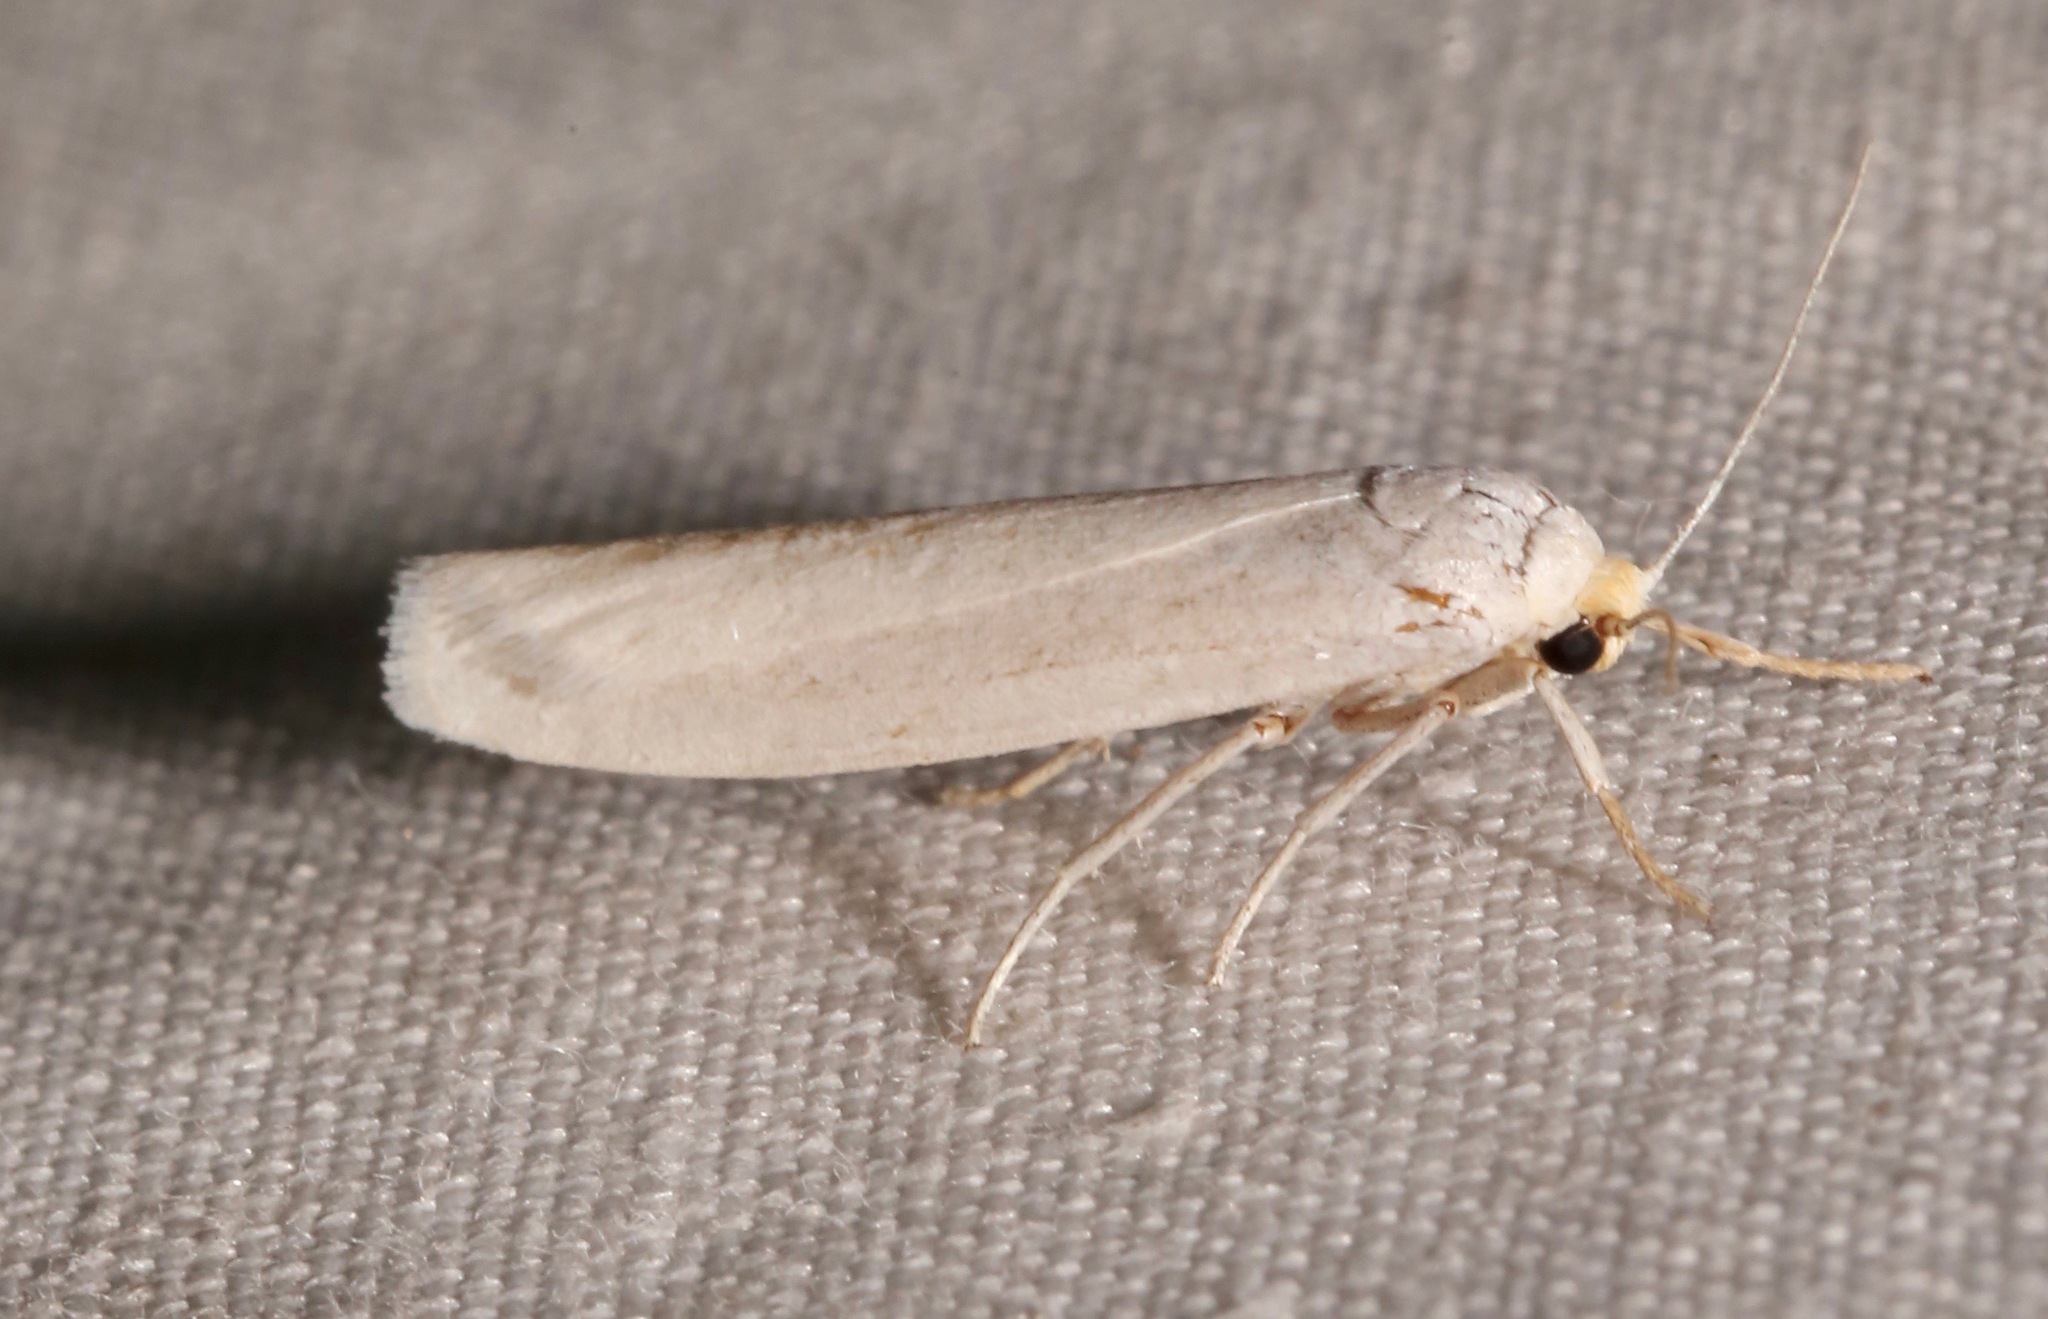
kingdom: Animalia
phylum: Arthropoda
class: Insecta
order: Lepidoptera
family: Erebidae
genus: Crambidia
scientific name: Crambidia cephalica
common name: Yellow-headed lichen moth
